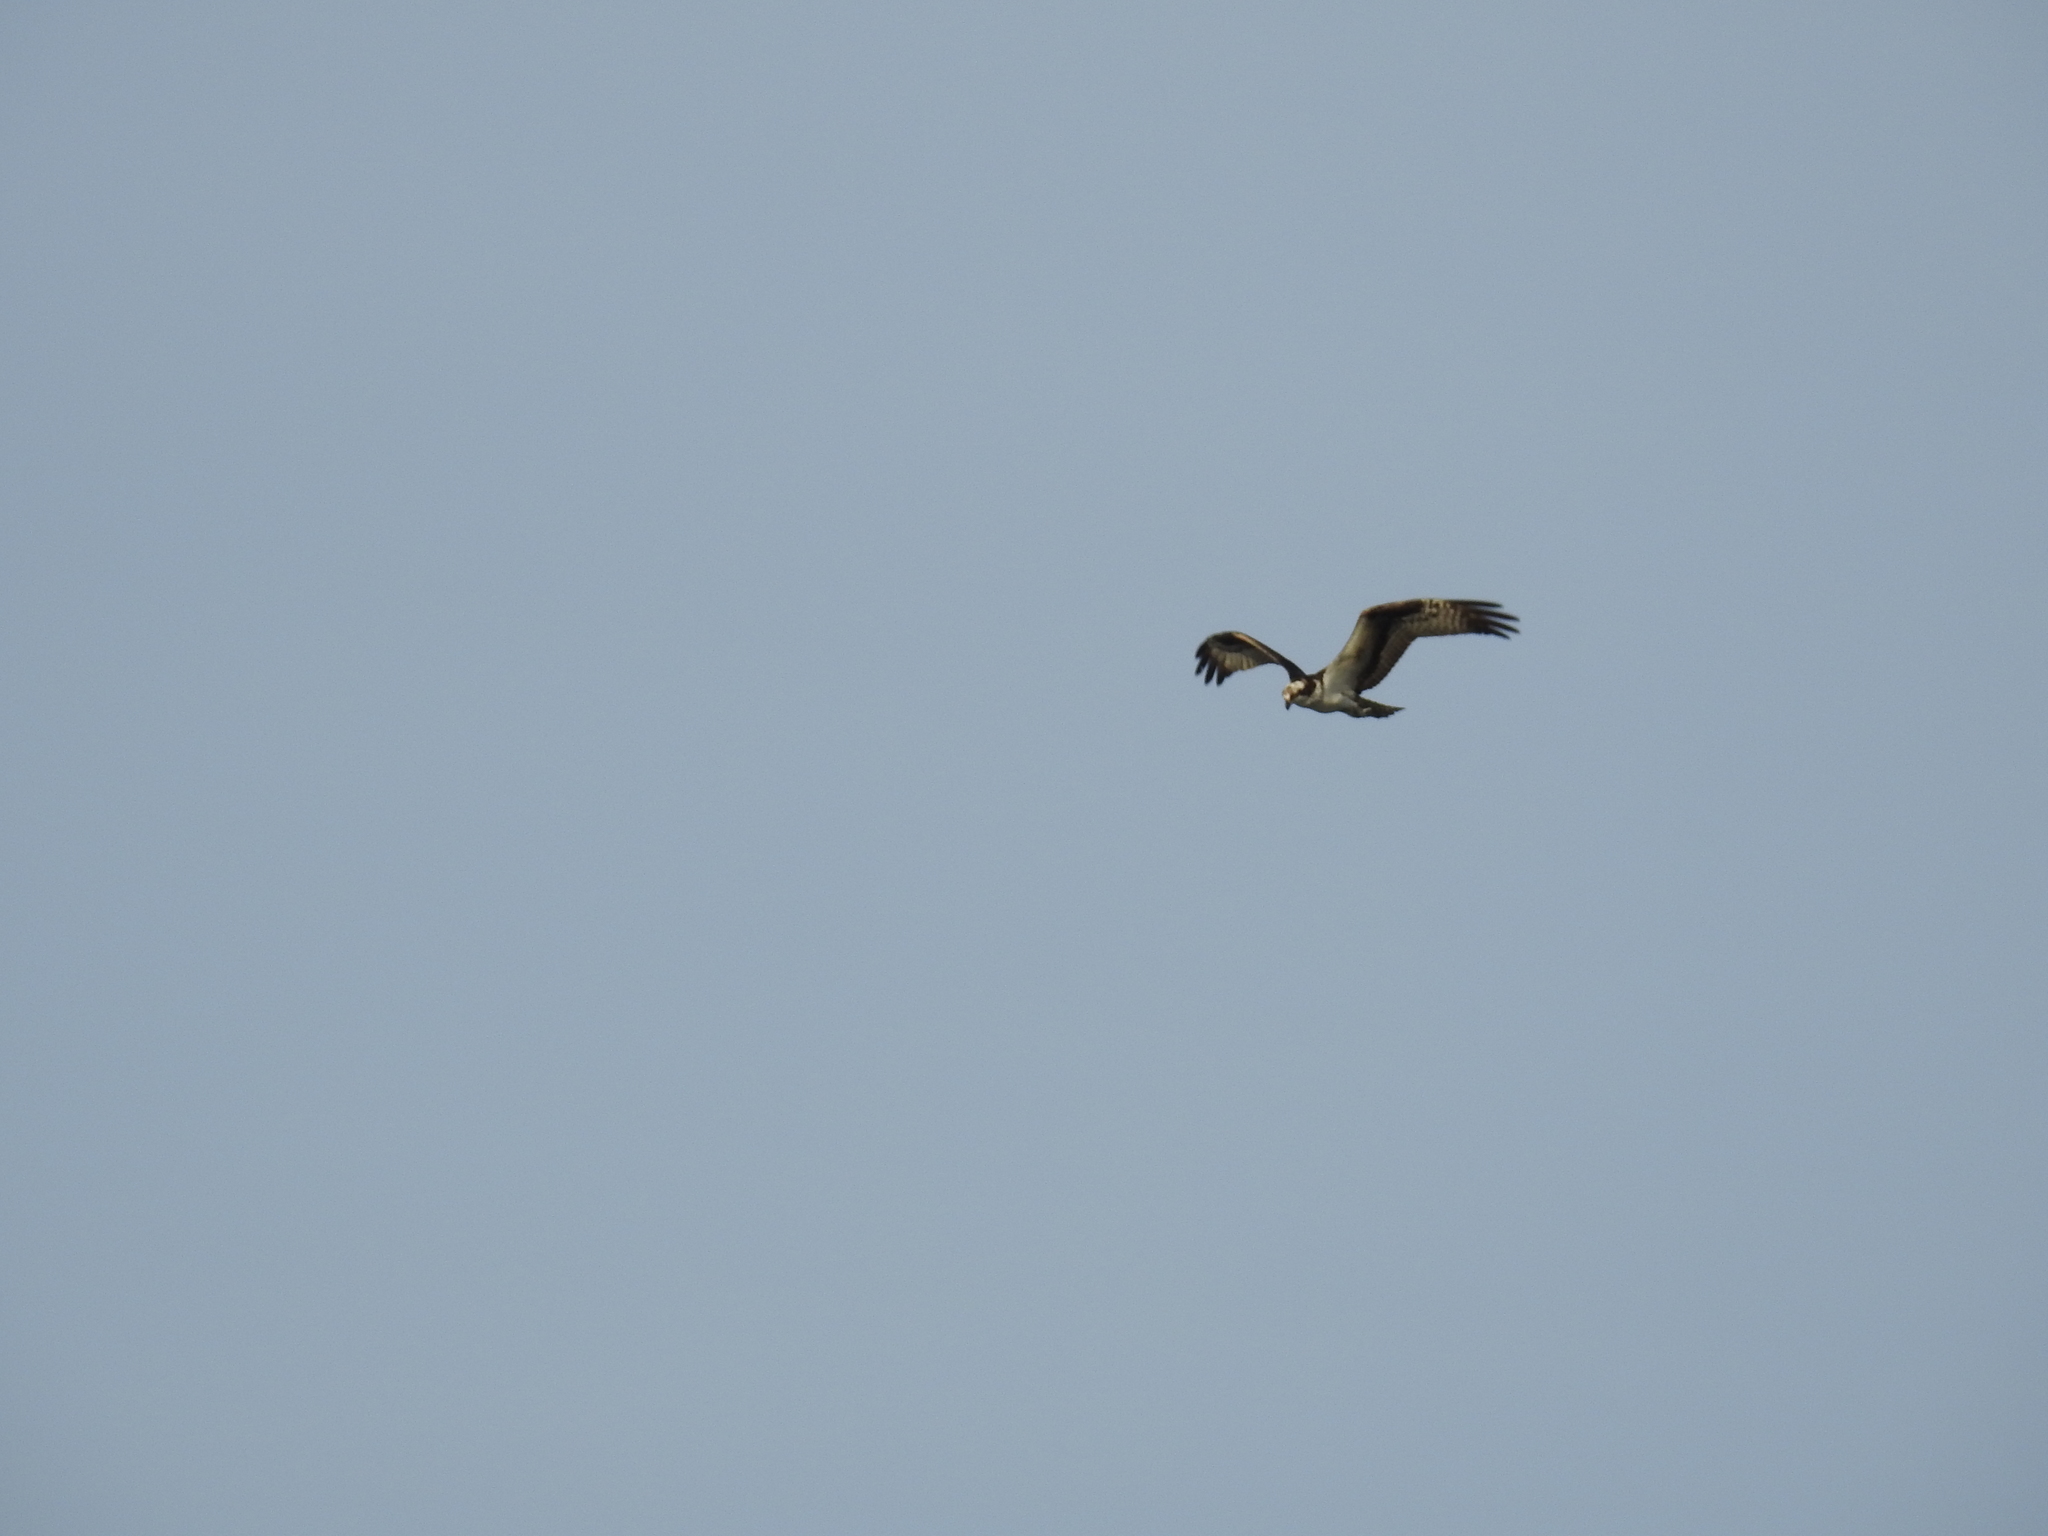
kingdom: Animalia
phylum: Chordata
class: Aves
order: Accipitriformes
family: Pandionidae
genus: Pandion
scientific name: Pandion haliaetus
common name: Osprey
